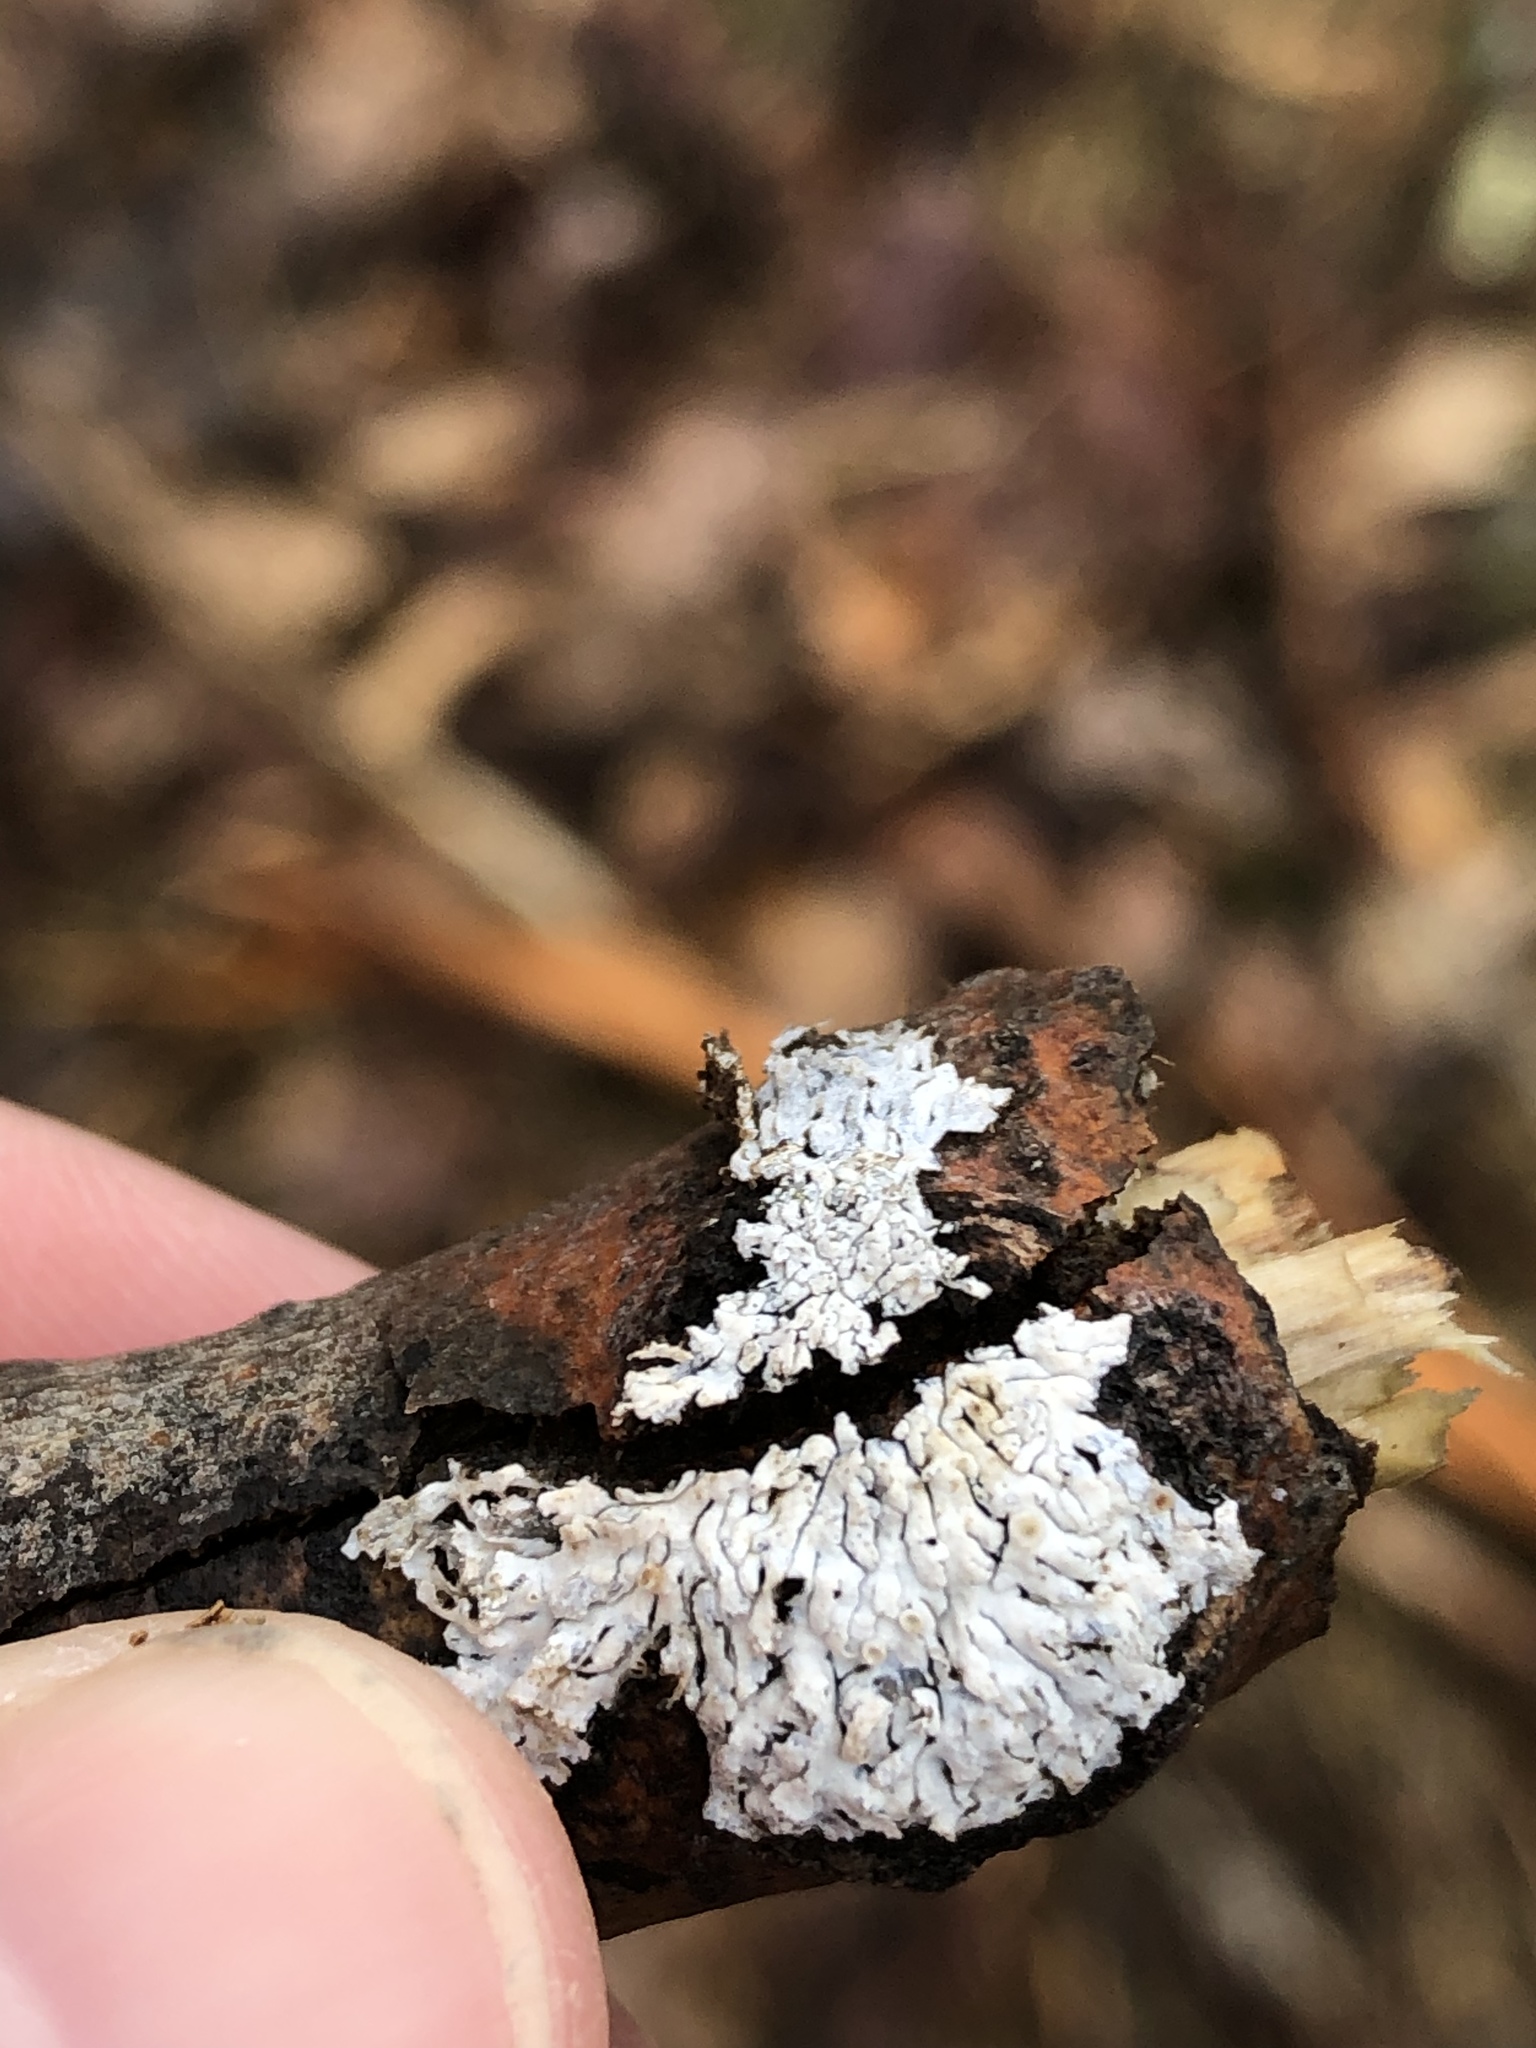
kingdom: Fungi
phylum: Ascomycota
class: Lecanoromycetes
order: Caliciales
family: Physciaceae
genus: Physcia
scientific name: Physcia stellaris
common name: Star rosette lichen
